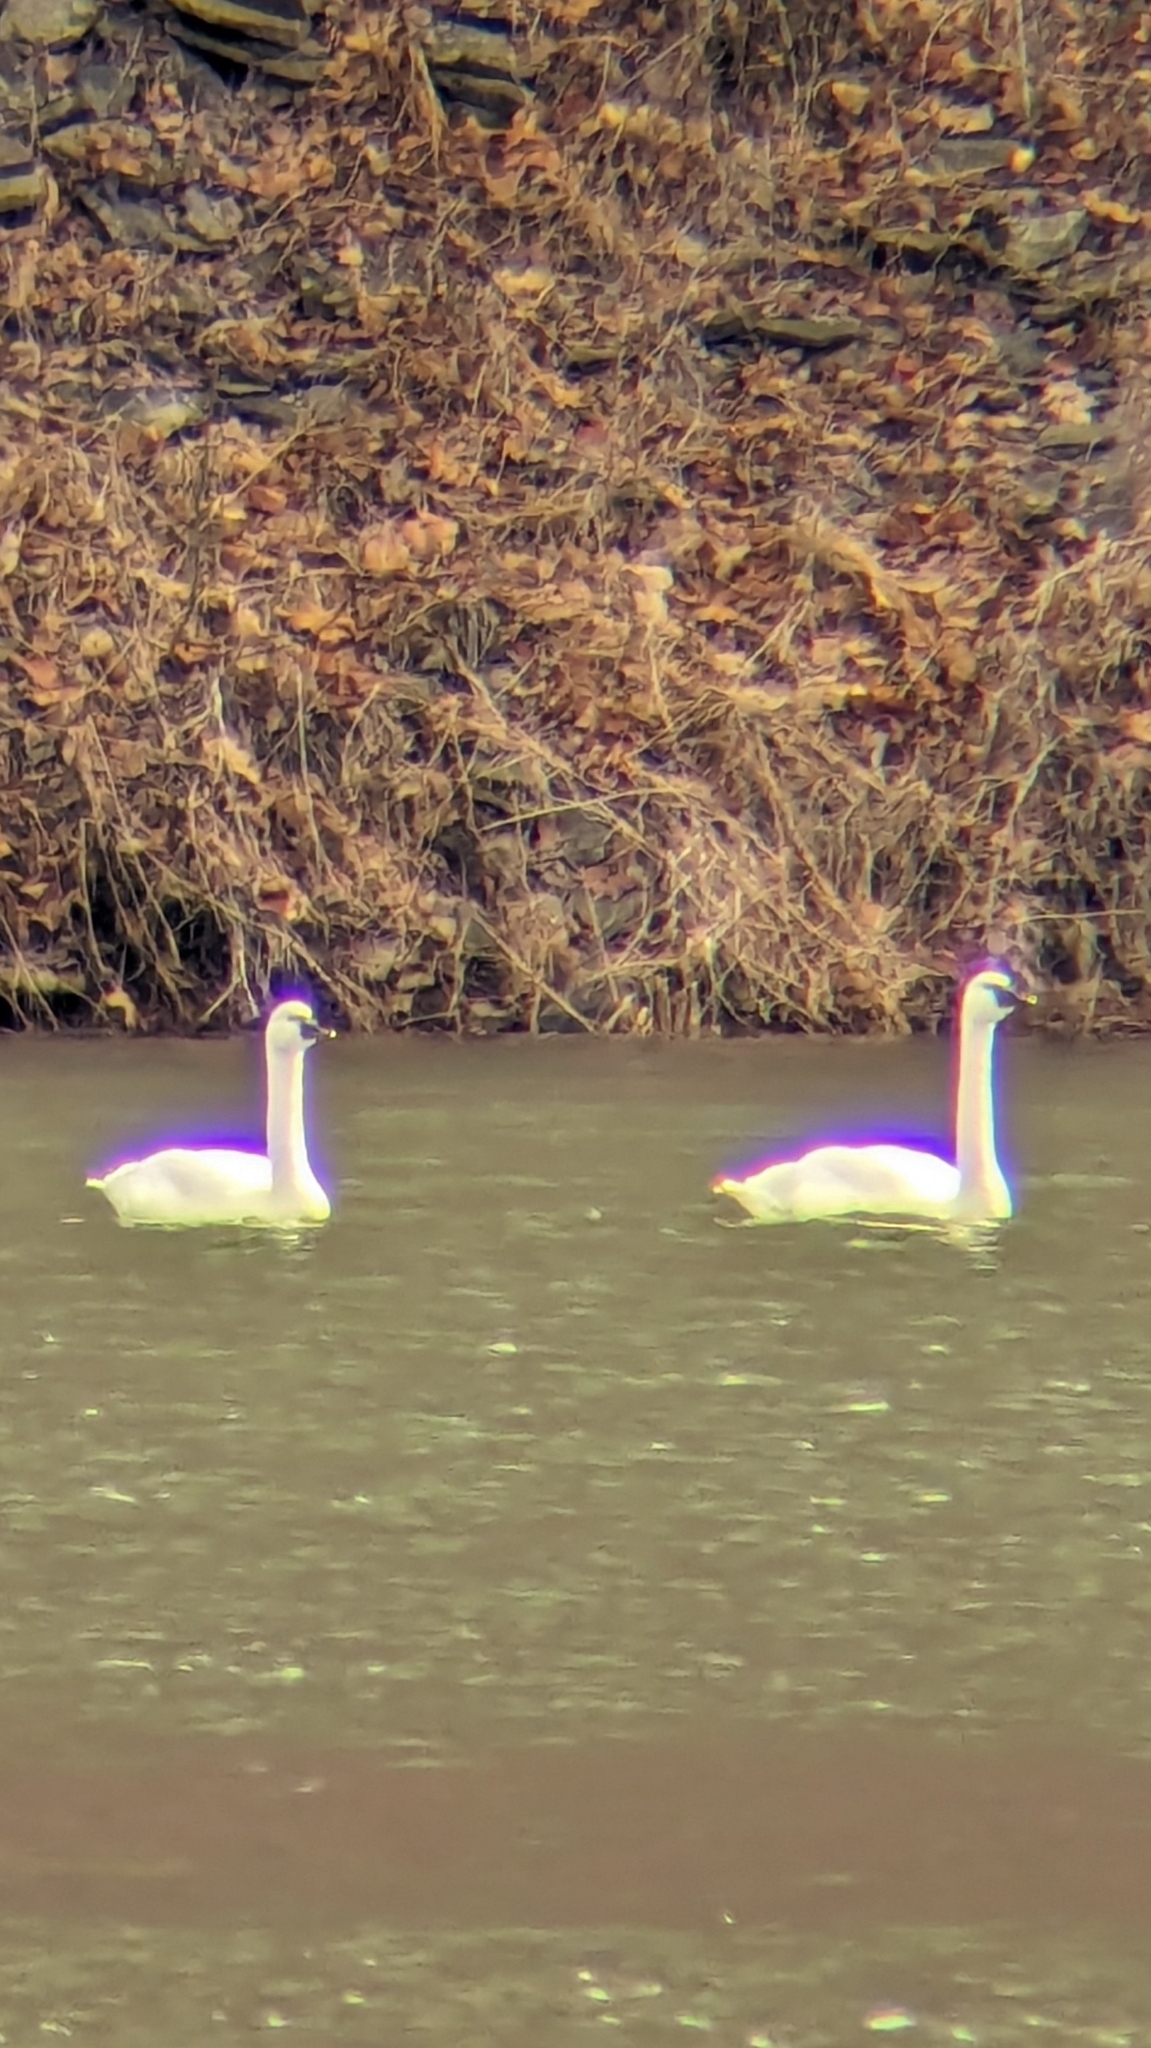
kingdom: Animalia
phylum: Chordata
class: Aves
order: Anseriformes
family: Anatidae
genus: Cygnus
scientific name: Cygnus columbianus
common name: Tundra swan
